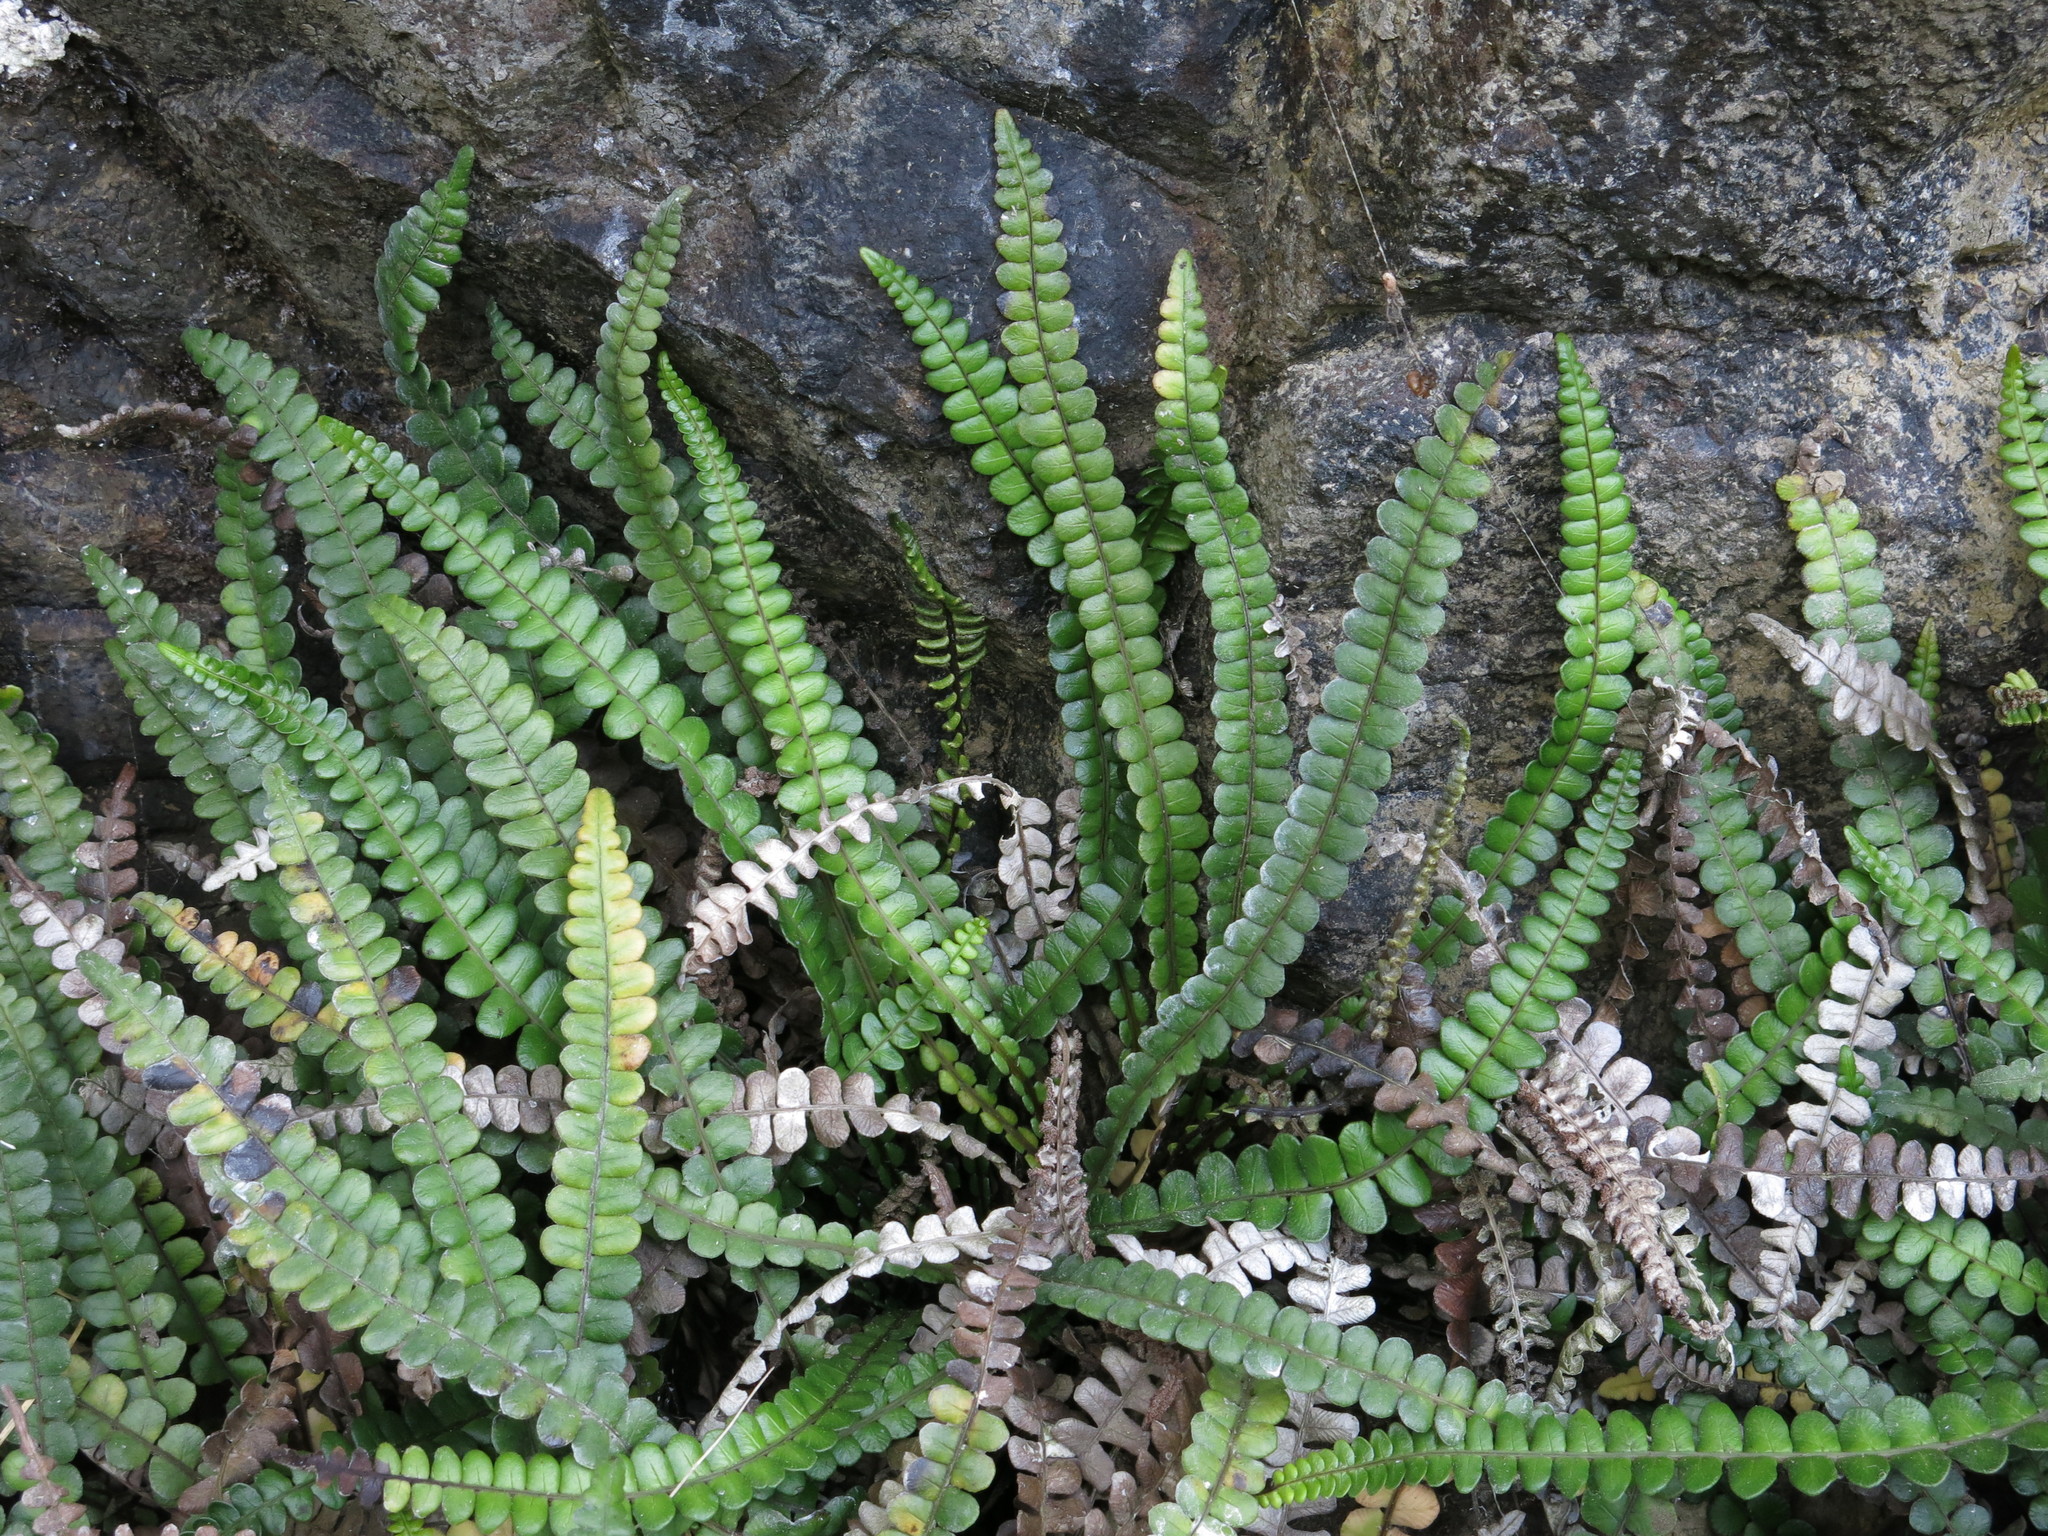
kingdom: Plantae
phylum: Tracheophyta
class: Polypodiopsida
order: Polypodiales
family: Blechnaceae
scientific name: Blechnaceae
